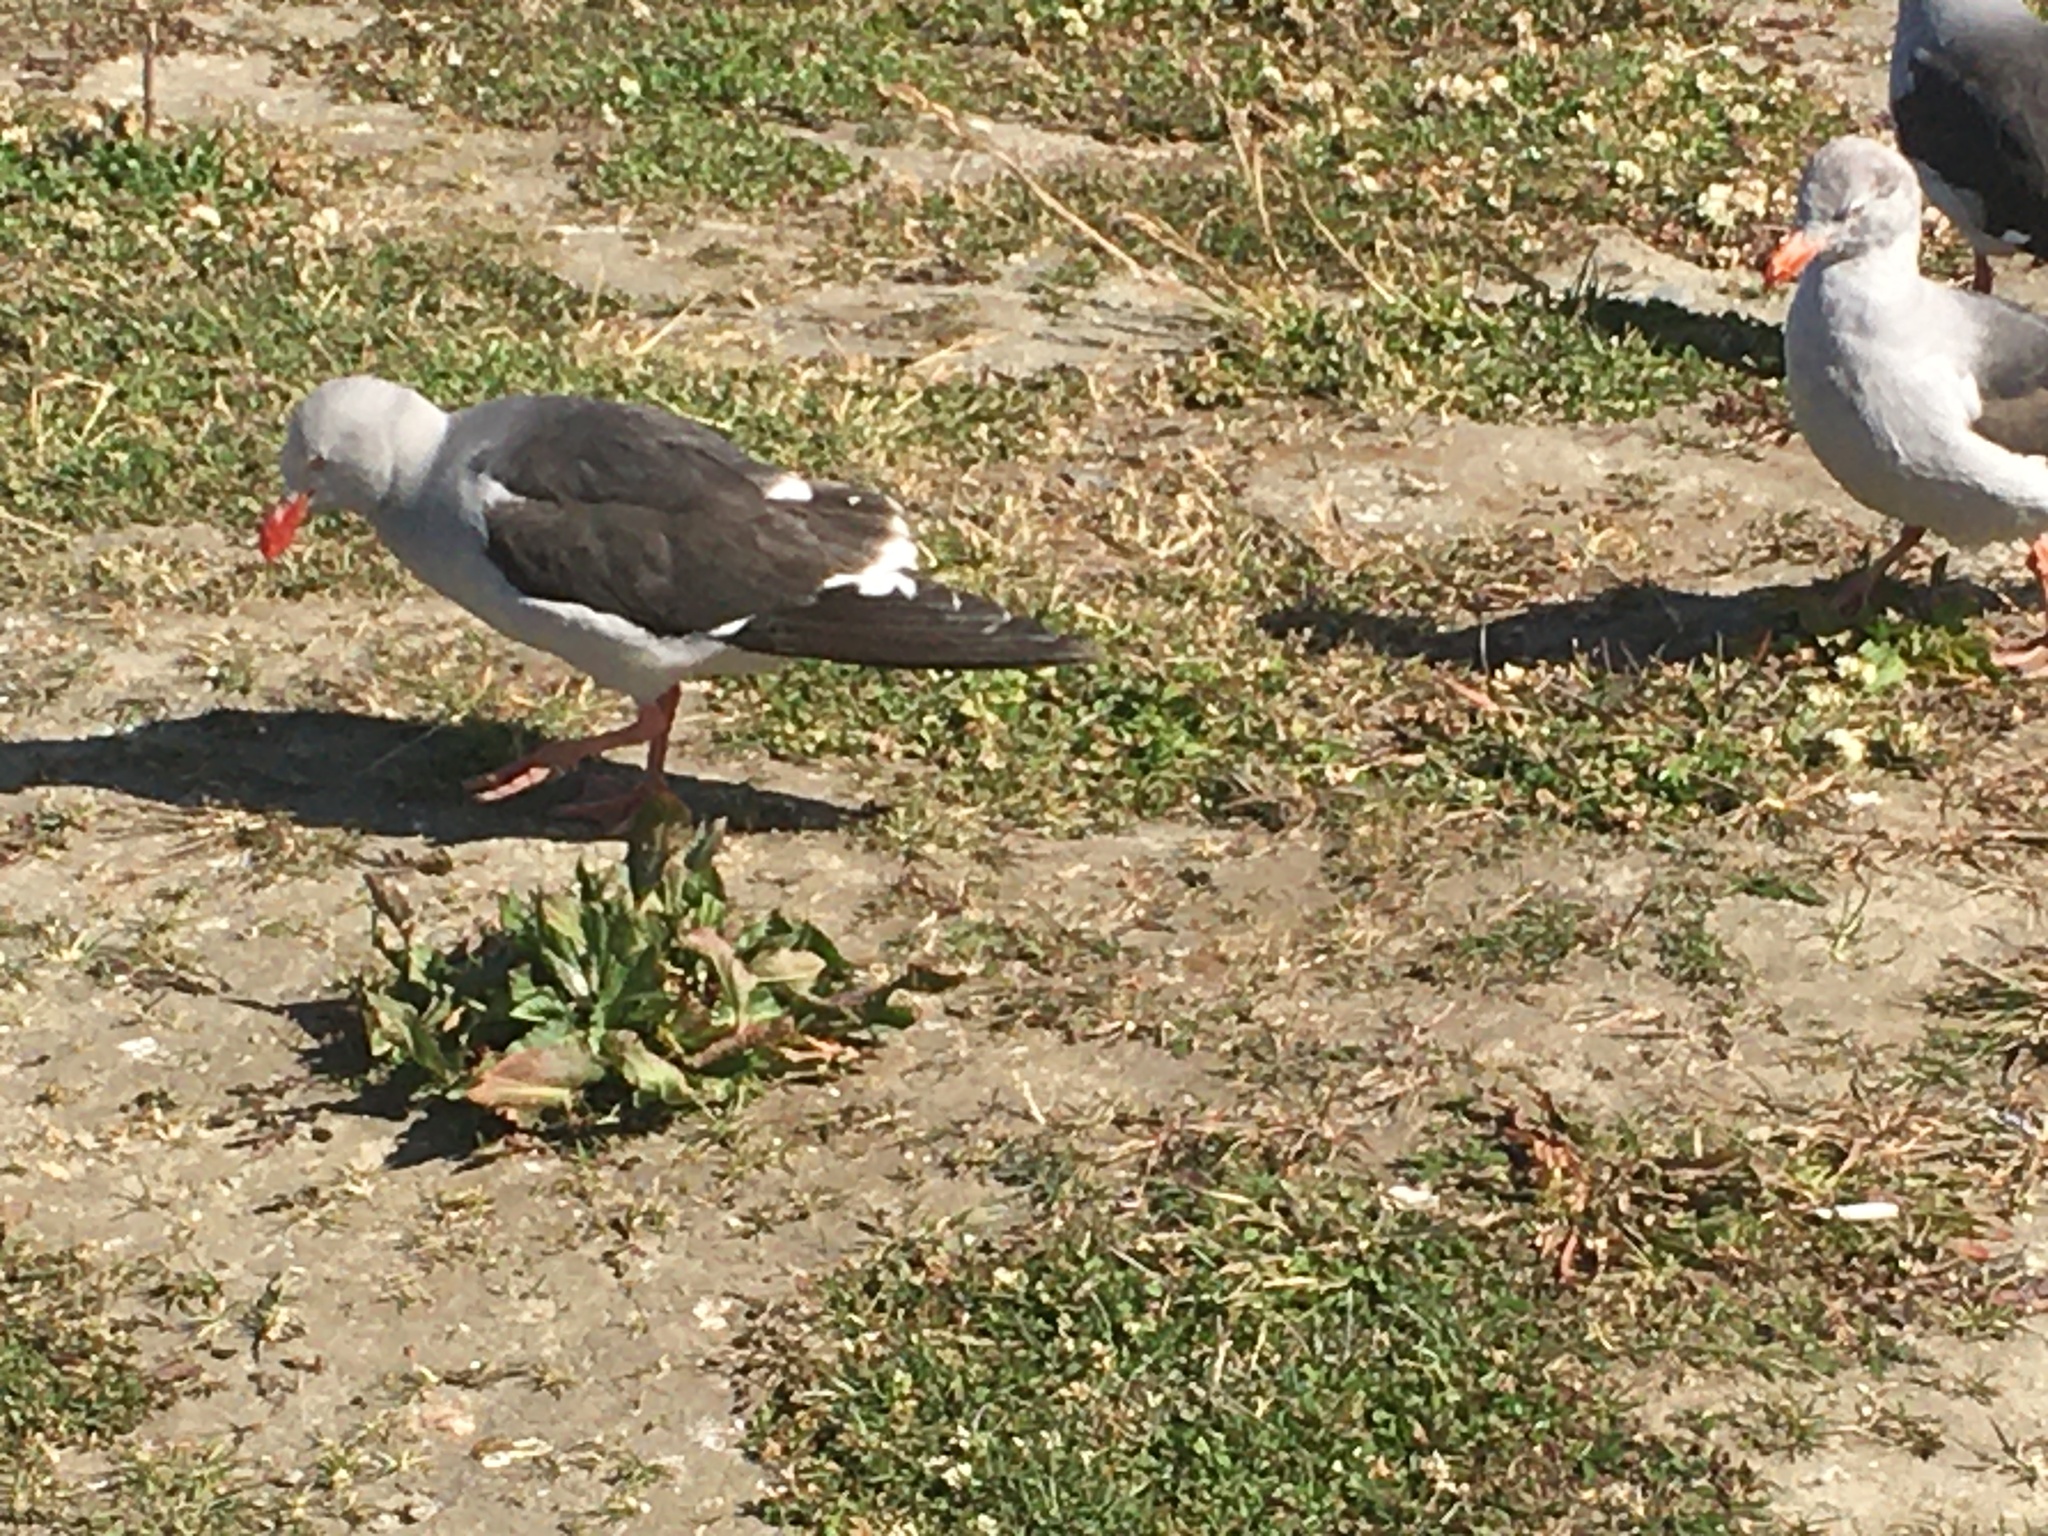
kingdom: Animalia
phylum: Chordata
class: Aves
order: Charadriiformes
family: Laridae
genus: Leucophaeus
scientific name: Leucophaeus scoresbii
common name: Dolphin gull
